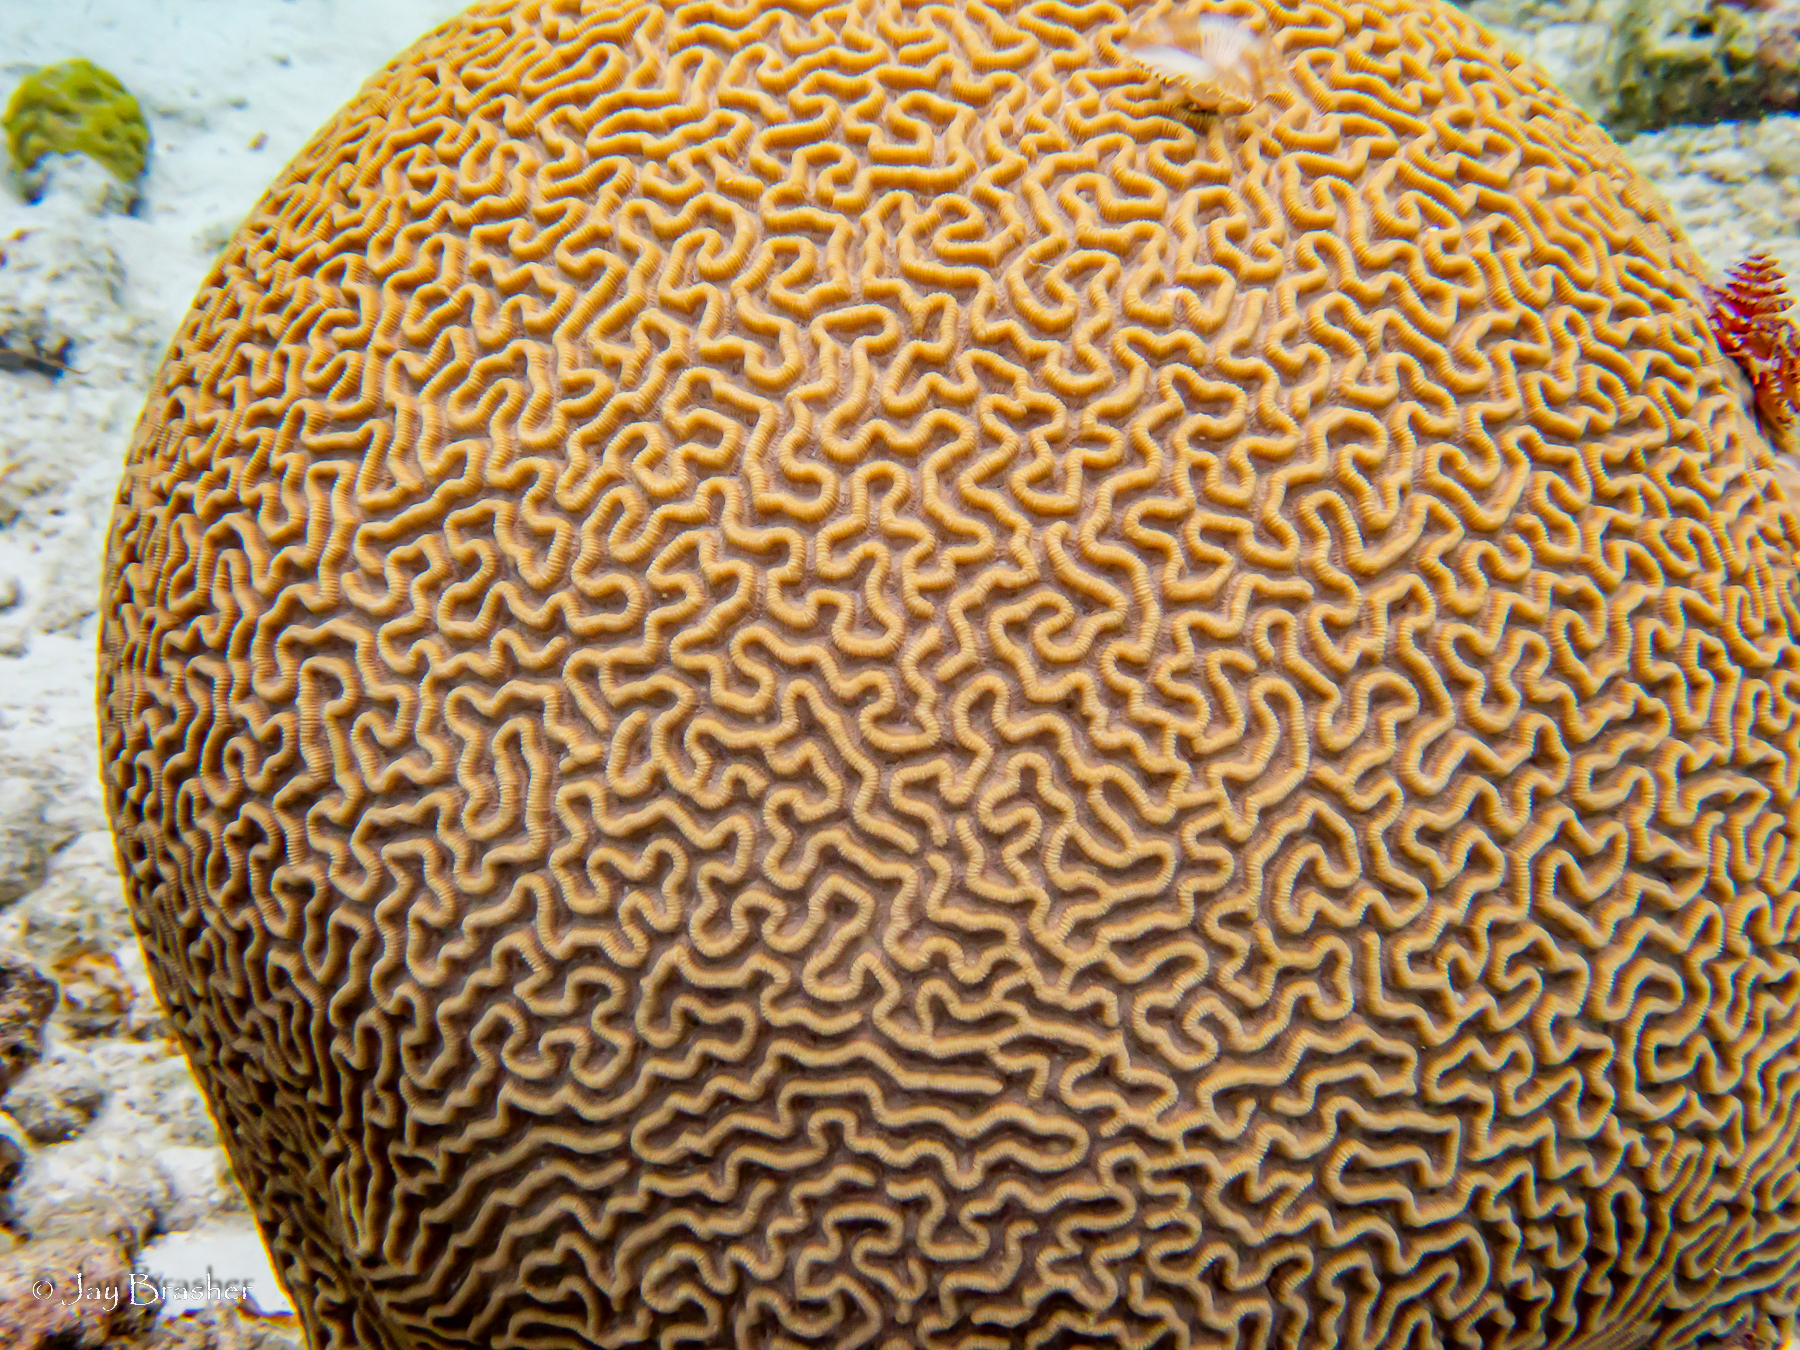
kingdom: Animalia
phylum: Cnidaria
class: Anthozoa
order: Scleractinia
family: Faviidae
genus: Pseudodiploria
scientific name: Pseudodiploria strigosa
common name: Symmetrical brain coral
